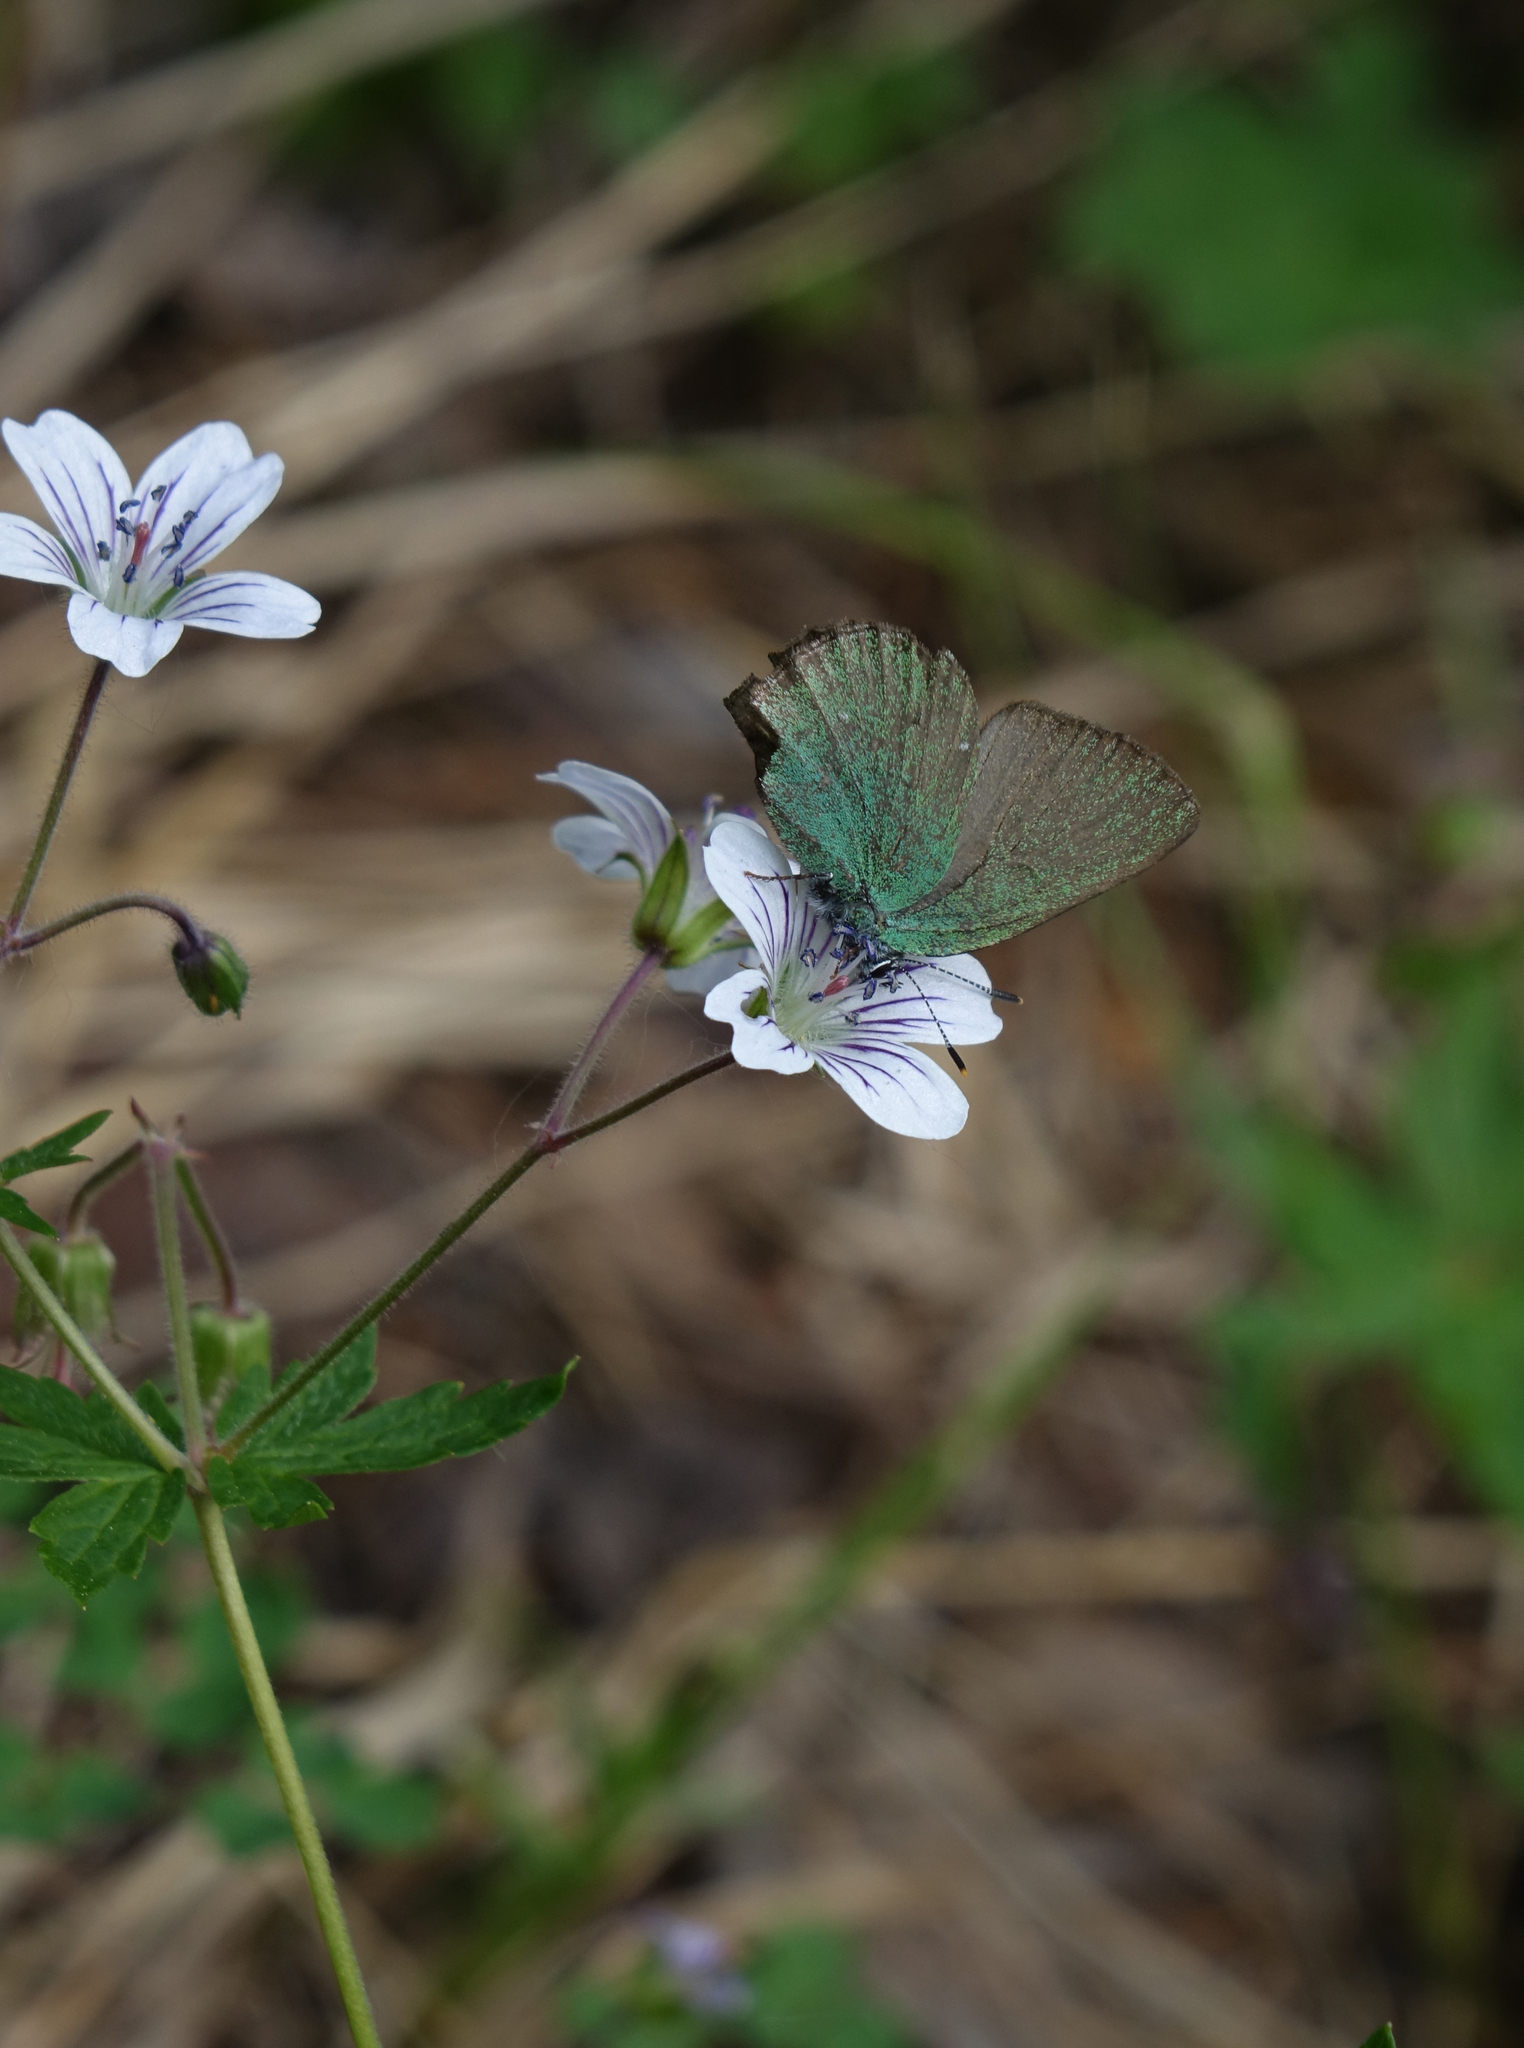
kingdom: Plantae
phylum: Tracheophyta
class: Magnoliopsida
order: Geraniales
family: Geraniaceae
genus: Geranium
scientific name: Geranium sylvaticum
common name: Wood crane's-bill
